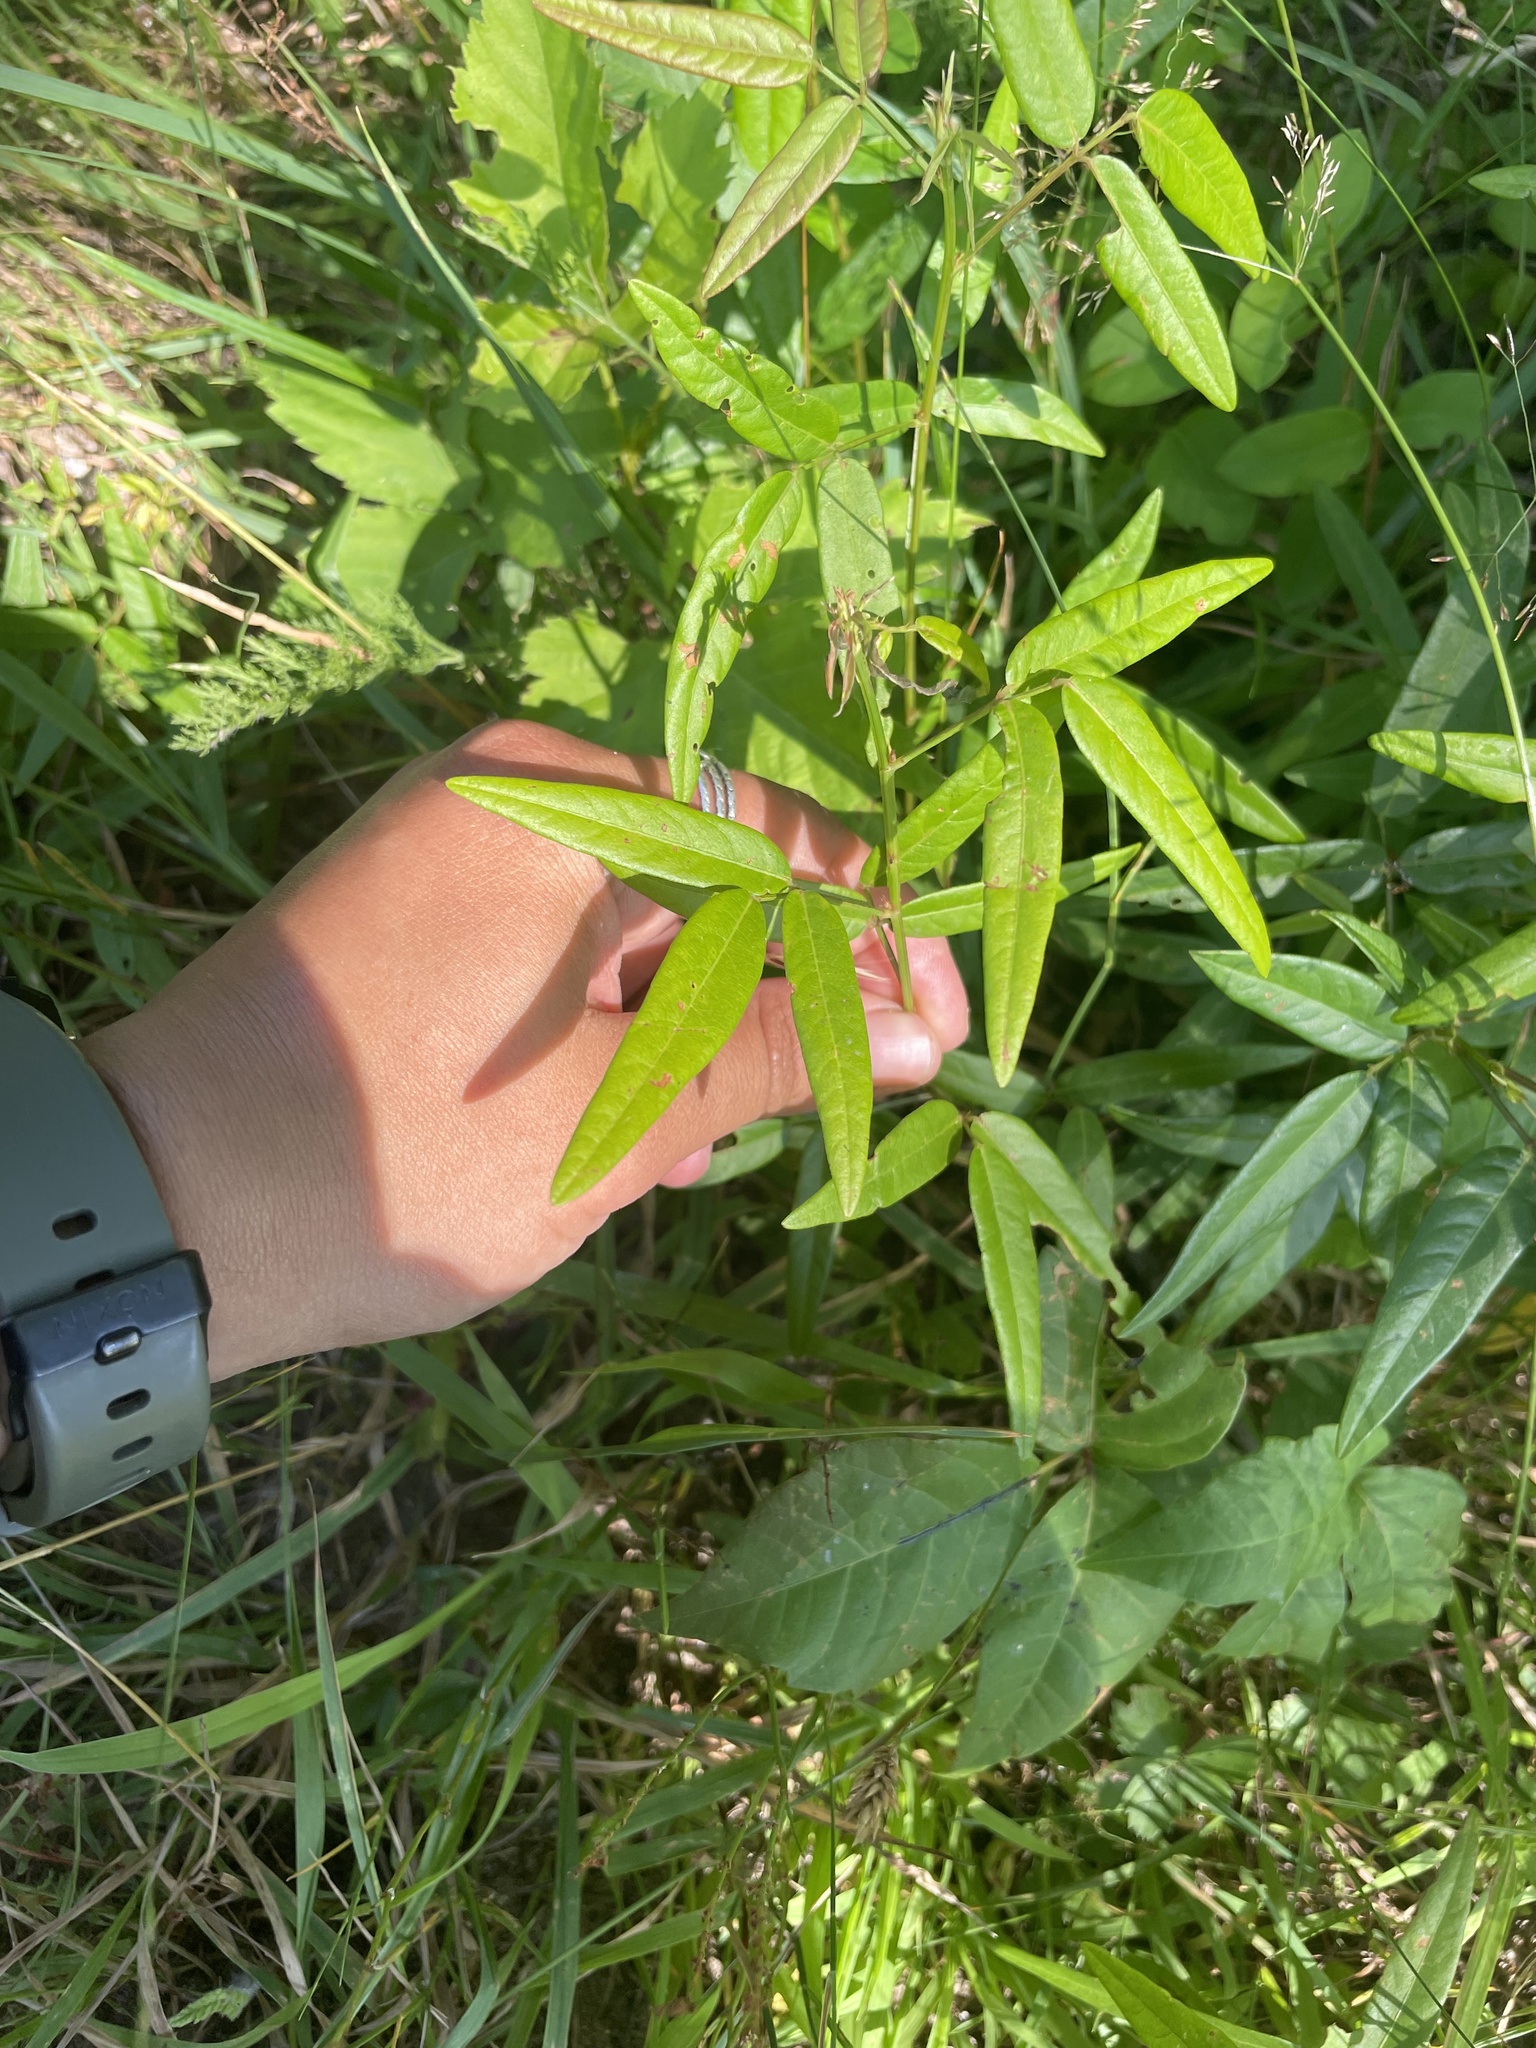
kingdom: Plantae
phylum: Tracheophyta
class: Magnoliopsida
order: Fabales
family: Fabaceae
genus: Desmodium
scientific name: Desmodium paniculatum
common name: Panicled tick-clover
